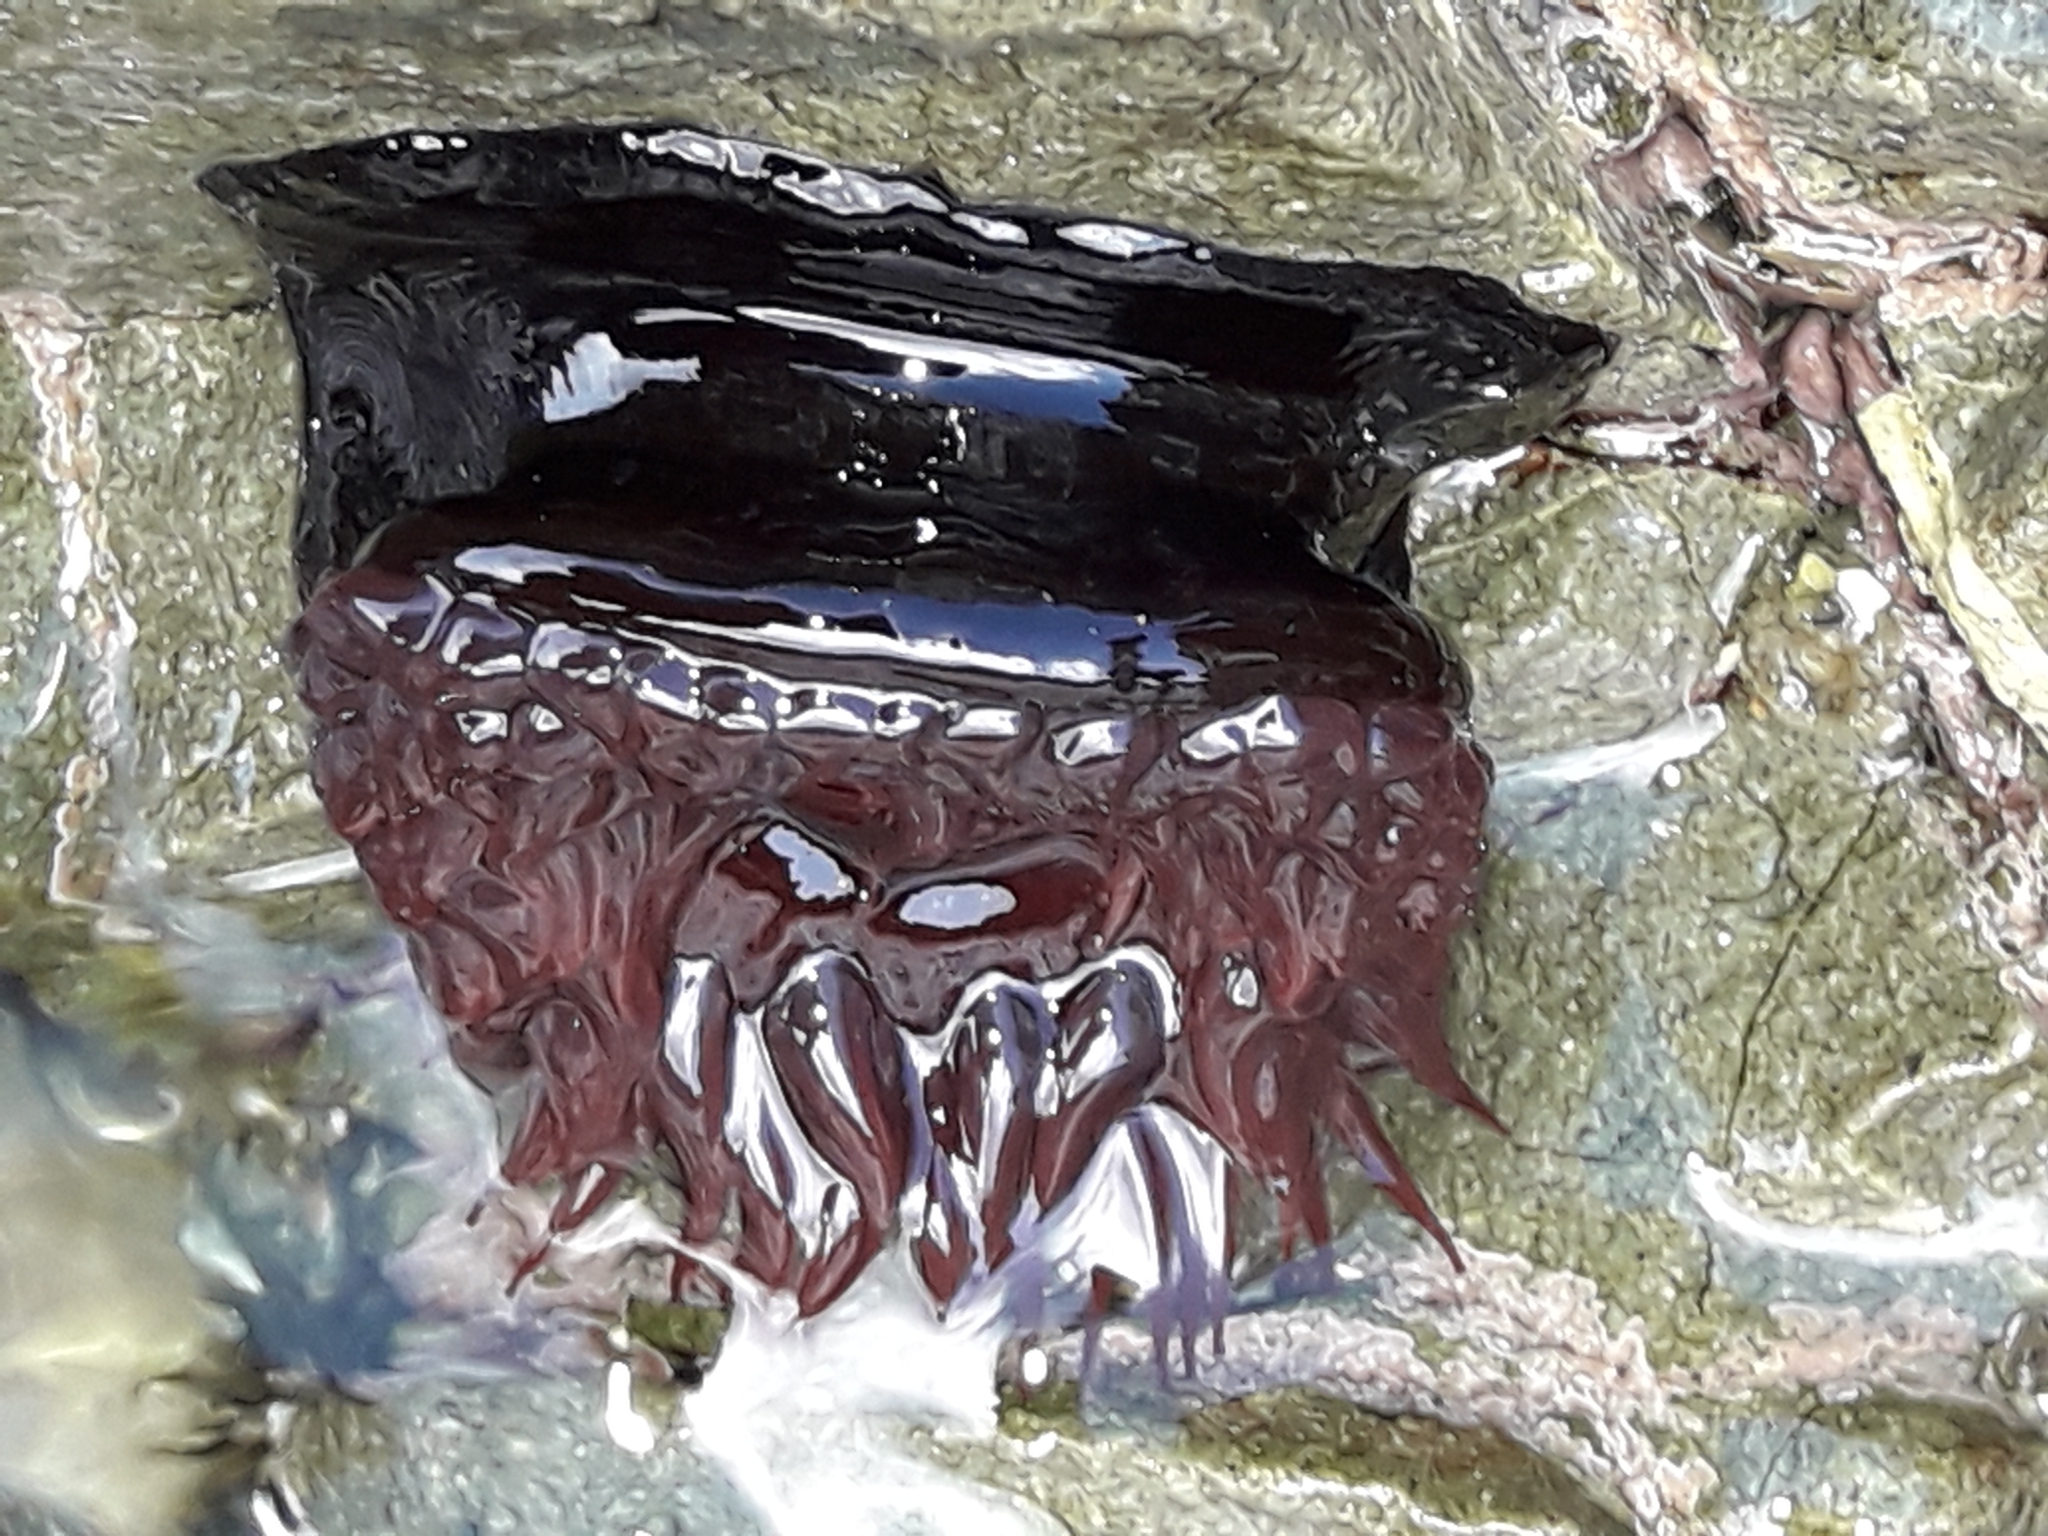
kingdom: Animalia
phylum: Cnidaria
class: Anthozoa
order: Actiniaria
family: Actiniidae
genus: Actinia
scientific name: Actinia tenebrosa
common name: Waratah anemone
